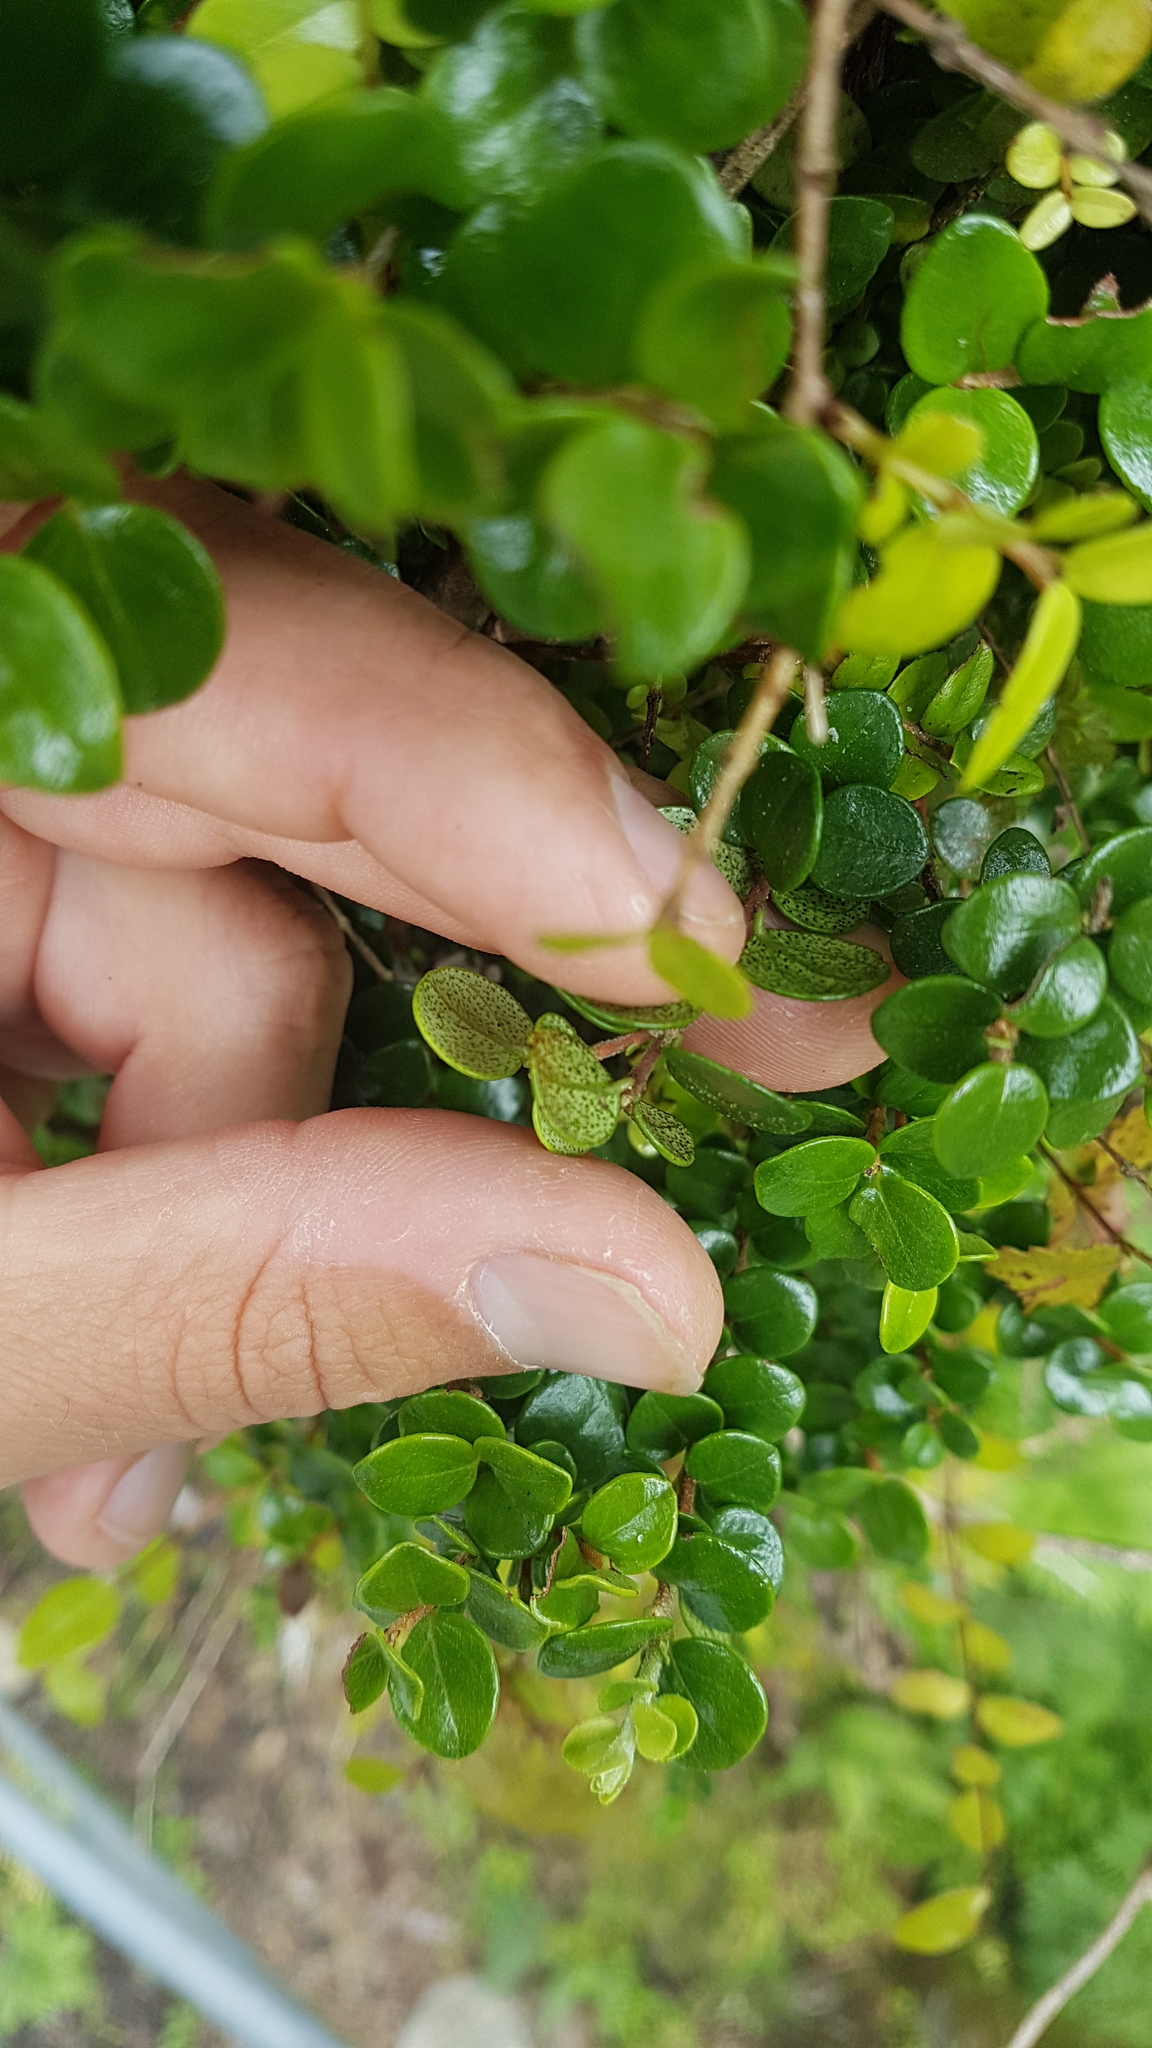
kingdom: Plantae
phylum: Tracheophyta
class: Magnoliopsida
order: Myrtales
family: Myrtaceae
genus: Metrosideros
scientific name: Metrosideros perforata
